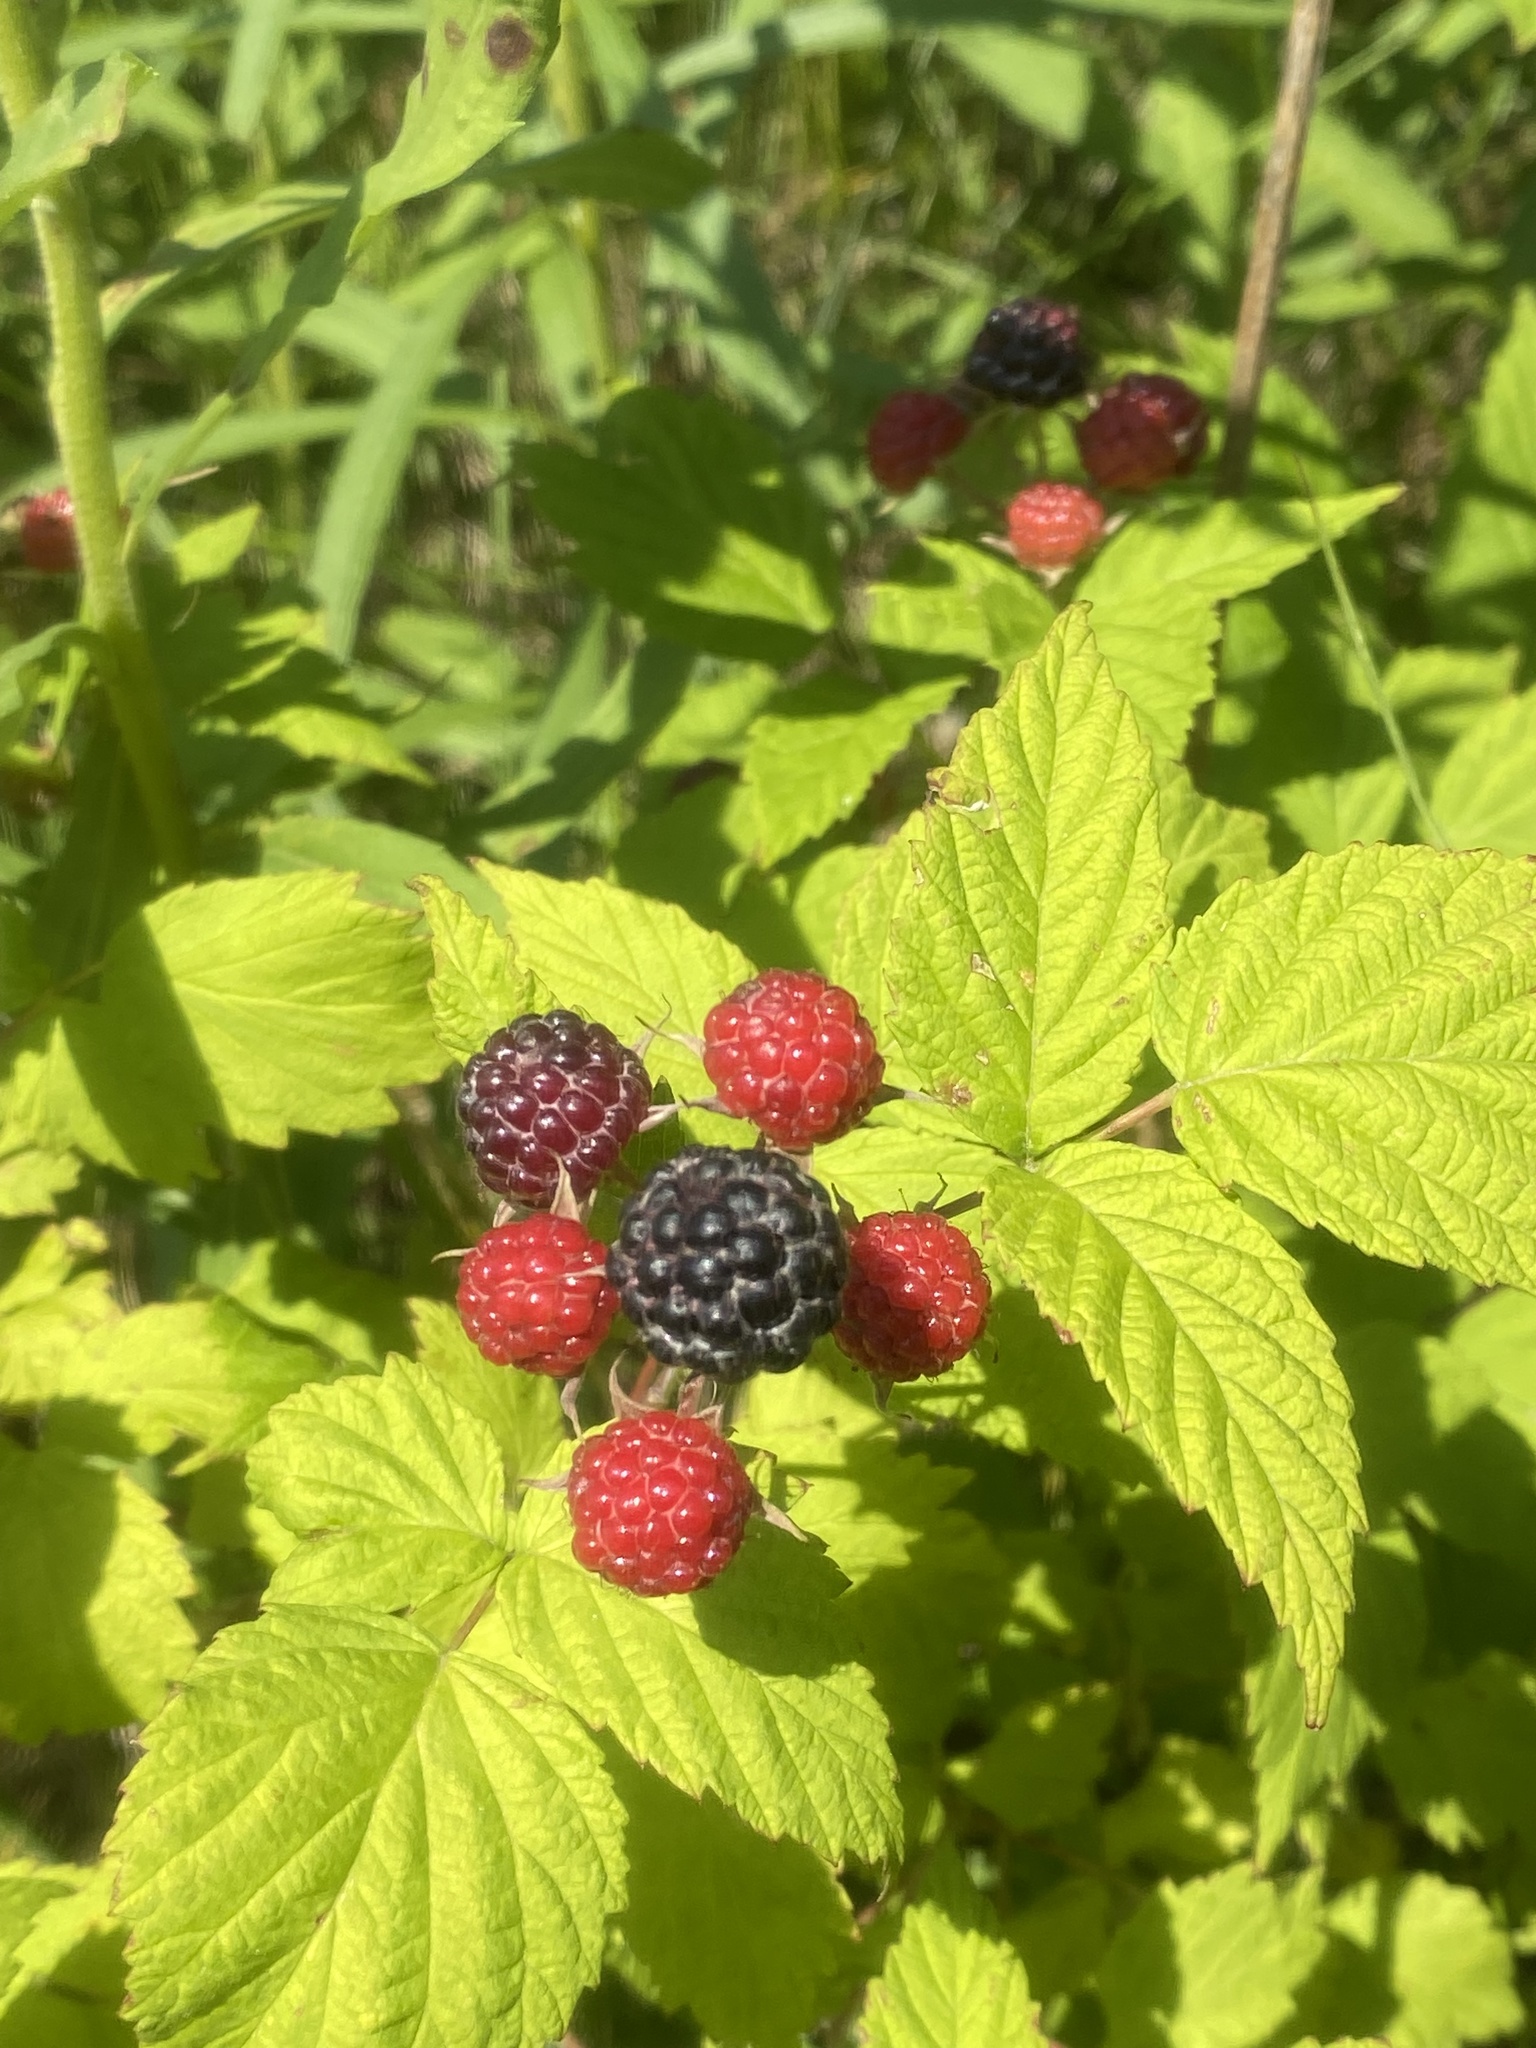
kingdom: Plantae
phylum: Tracheophyta
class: Magnoliopsida
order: Rosales
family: Rosaceae
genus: Rubus
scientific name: Rubus occidentalis
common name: Black raspberry
